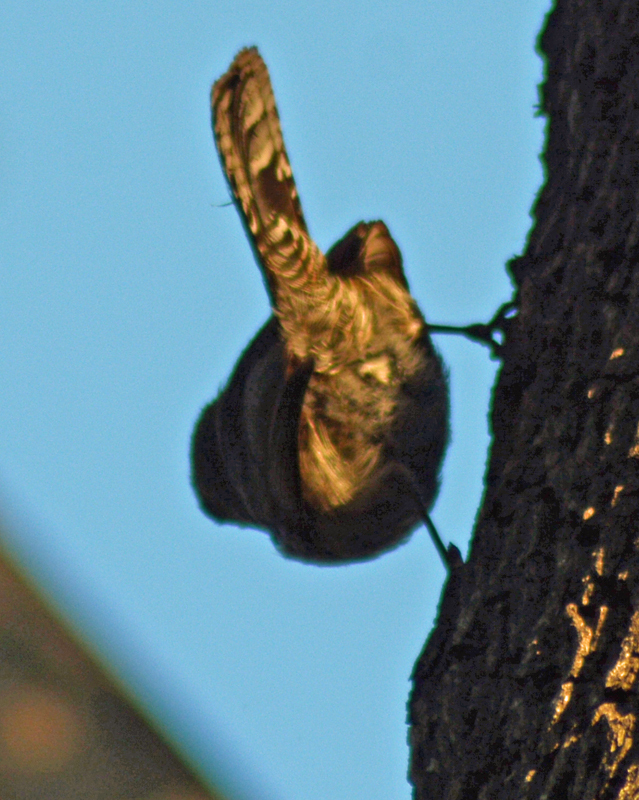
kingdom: Animalia
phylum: Chordata
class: Aves
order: Passeriformes
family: Troglodytidae
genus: Thryomanes
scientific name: Thryomanes bewickii
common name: Bewick's wren
